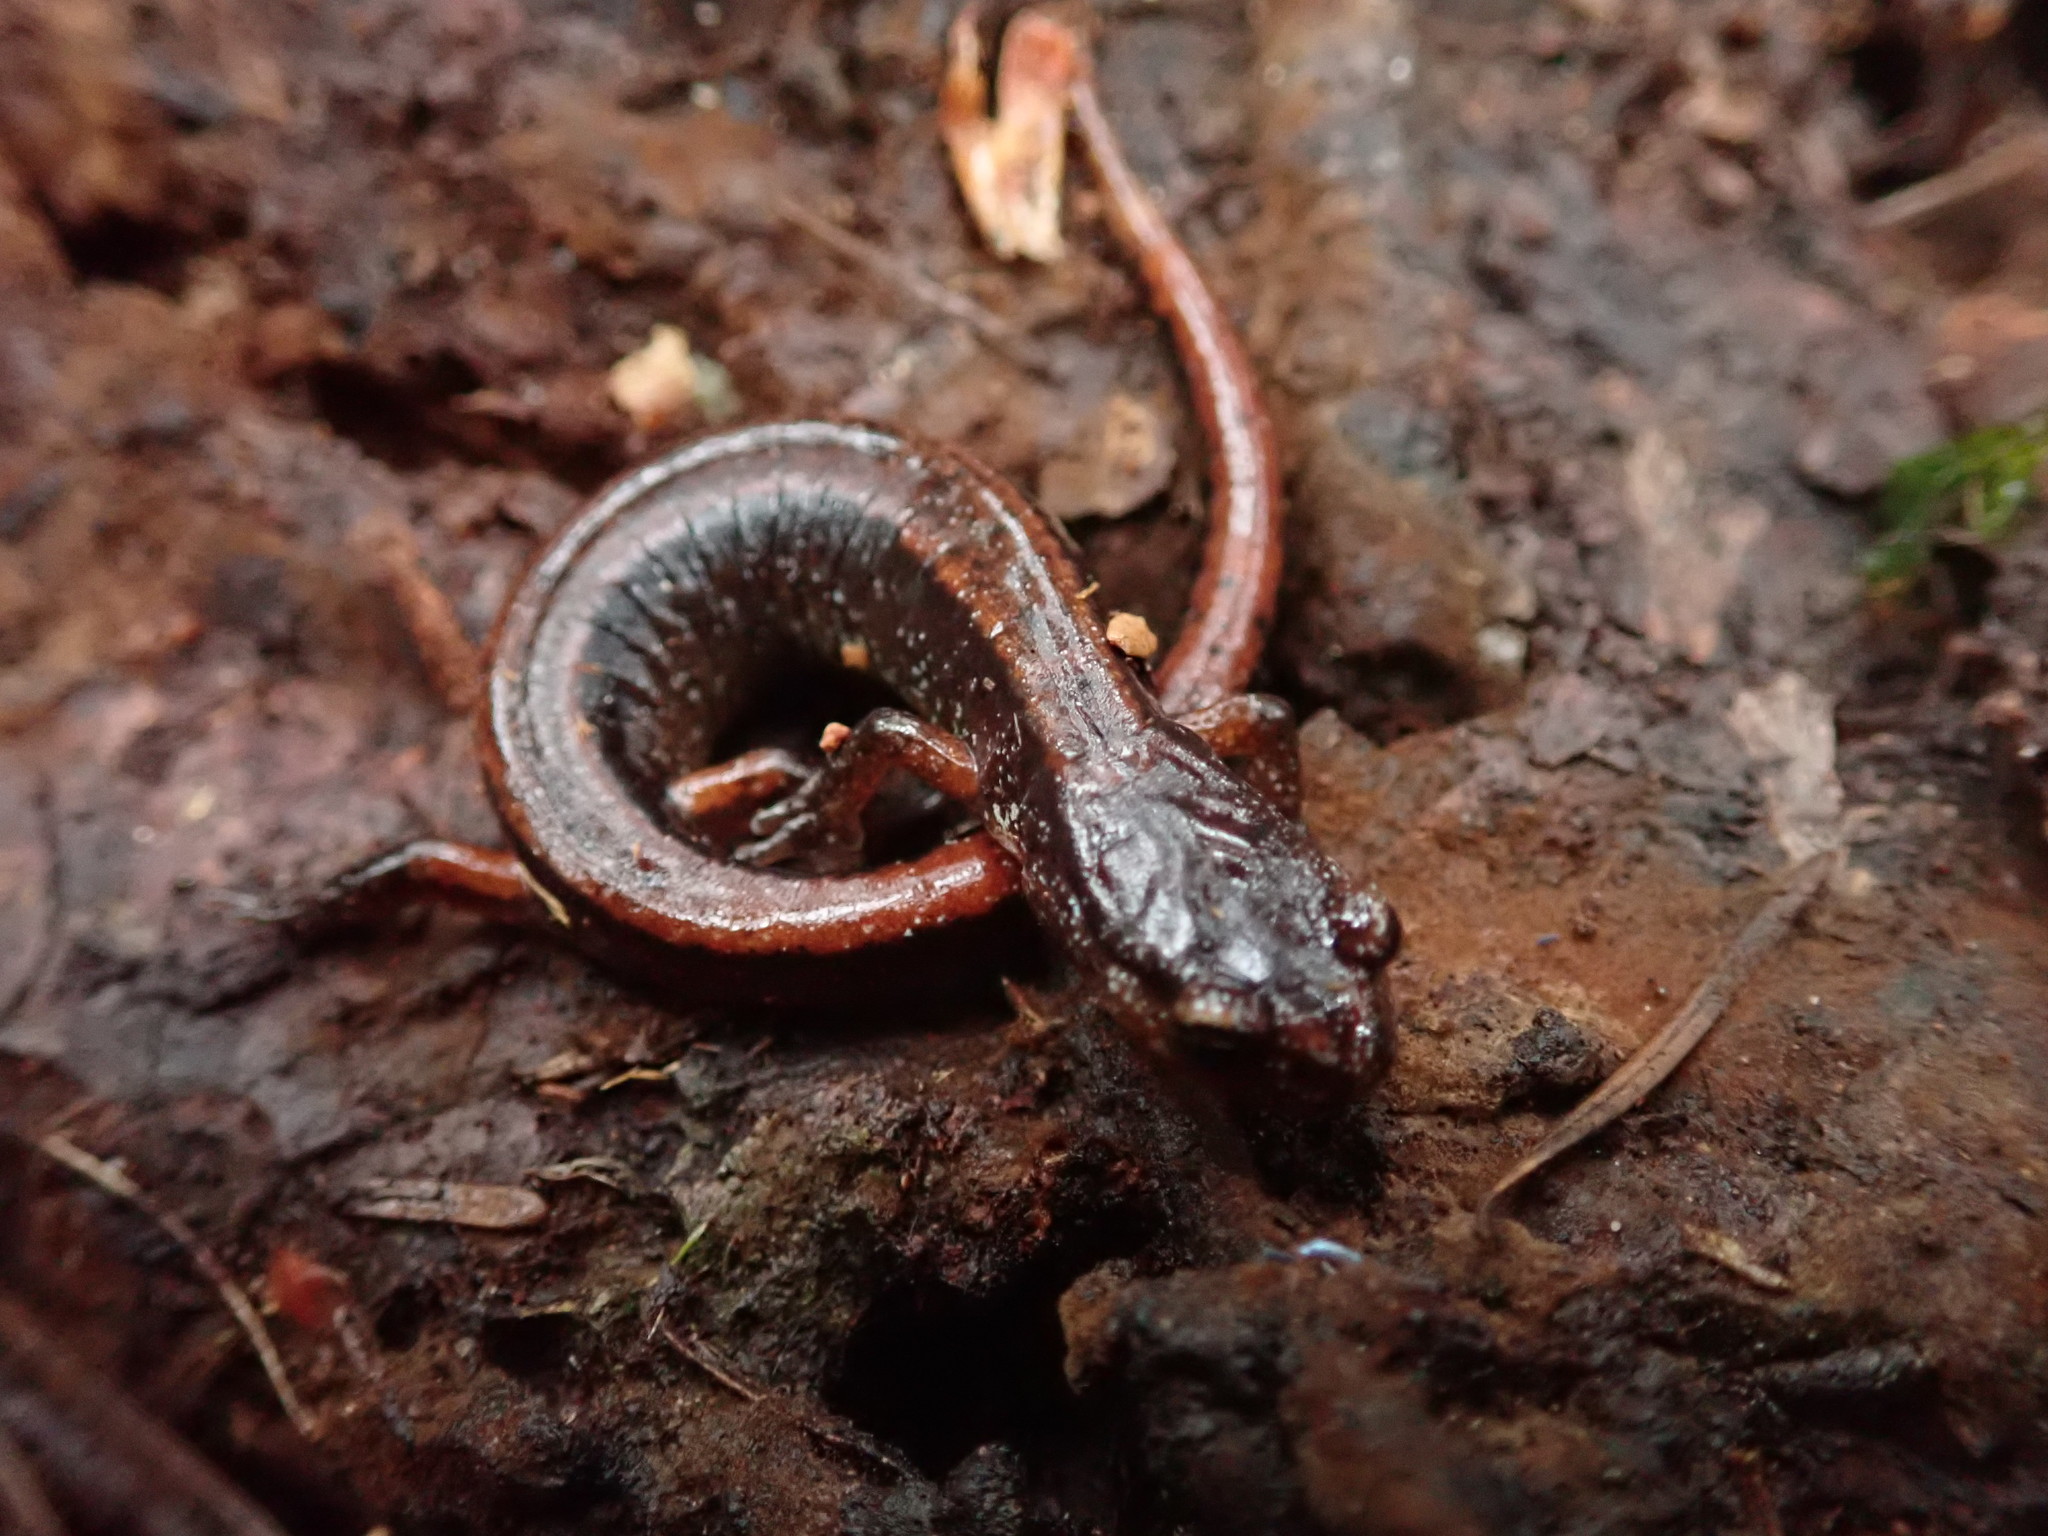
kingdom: Animalia
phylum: Chordata
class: Amphibia
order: Caudata
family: Plethodontidae
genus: Plethodon
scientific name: Plethodon vehiculum
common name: Western red-backed salamander
